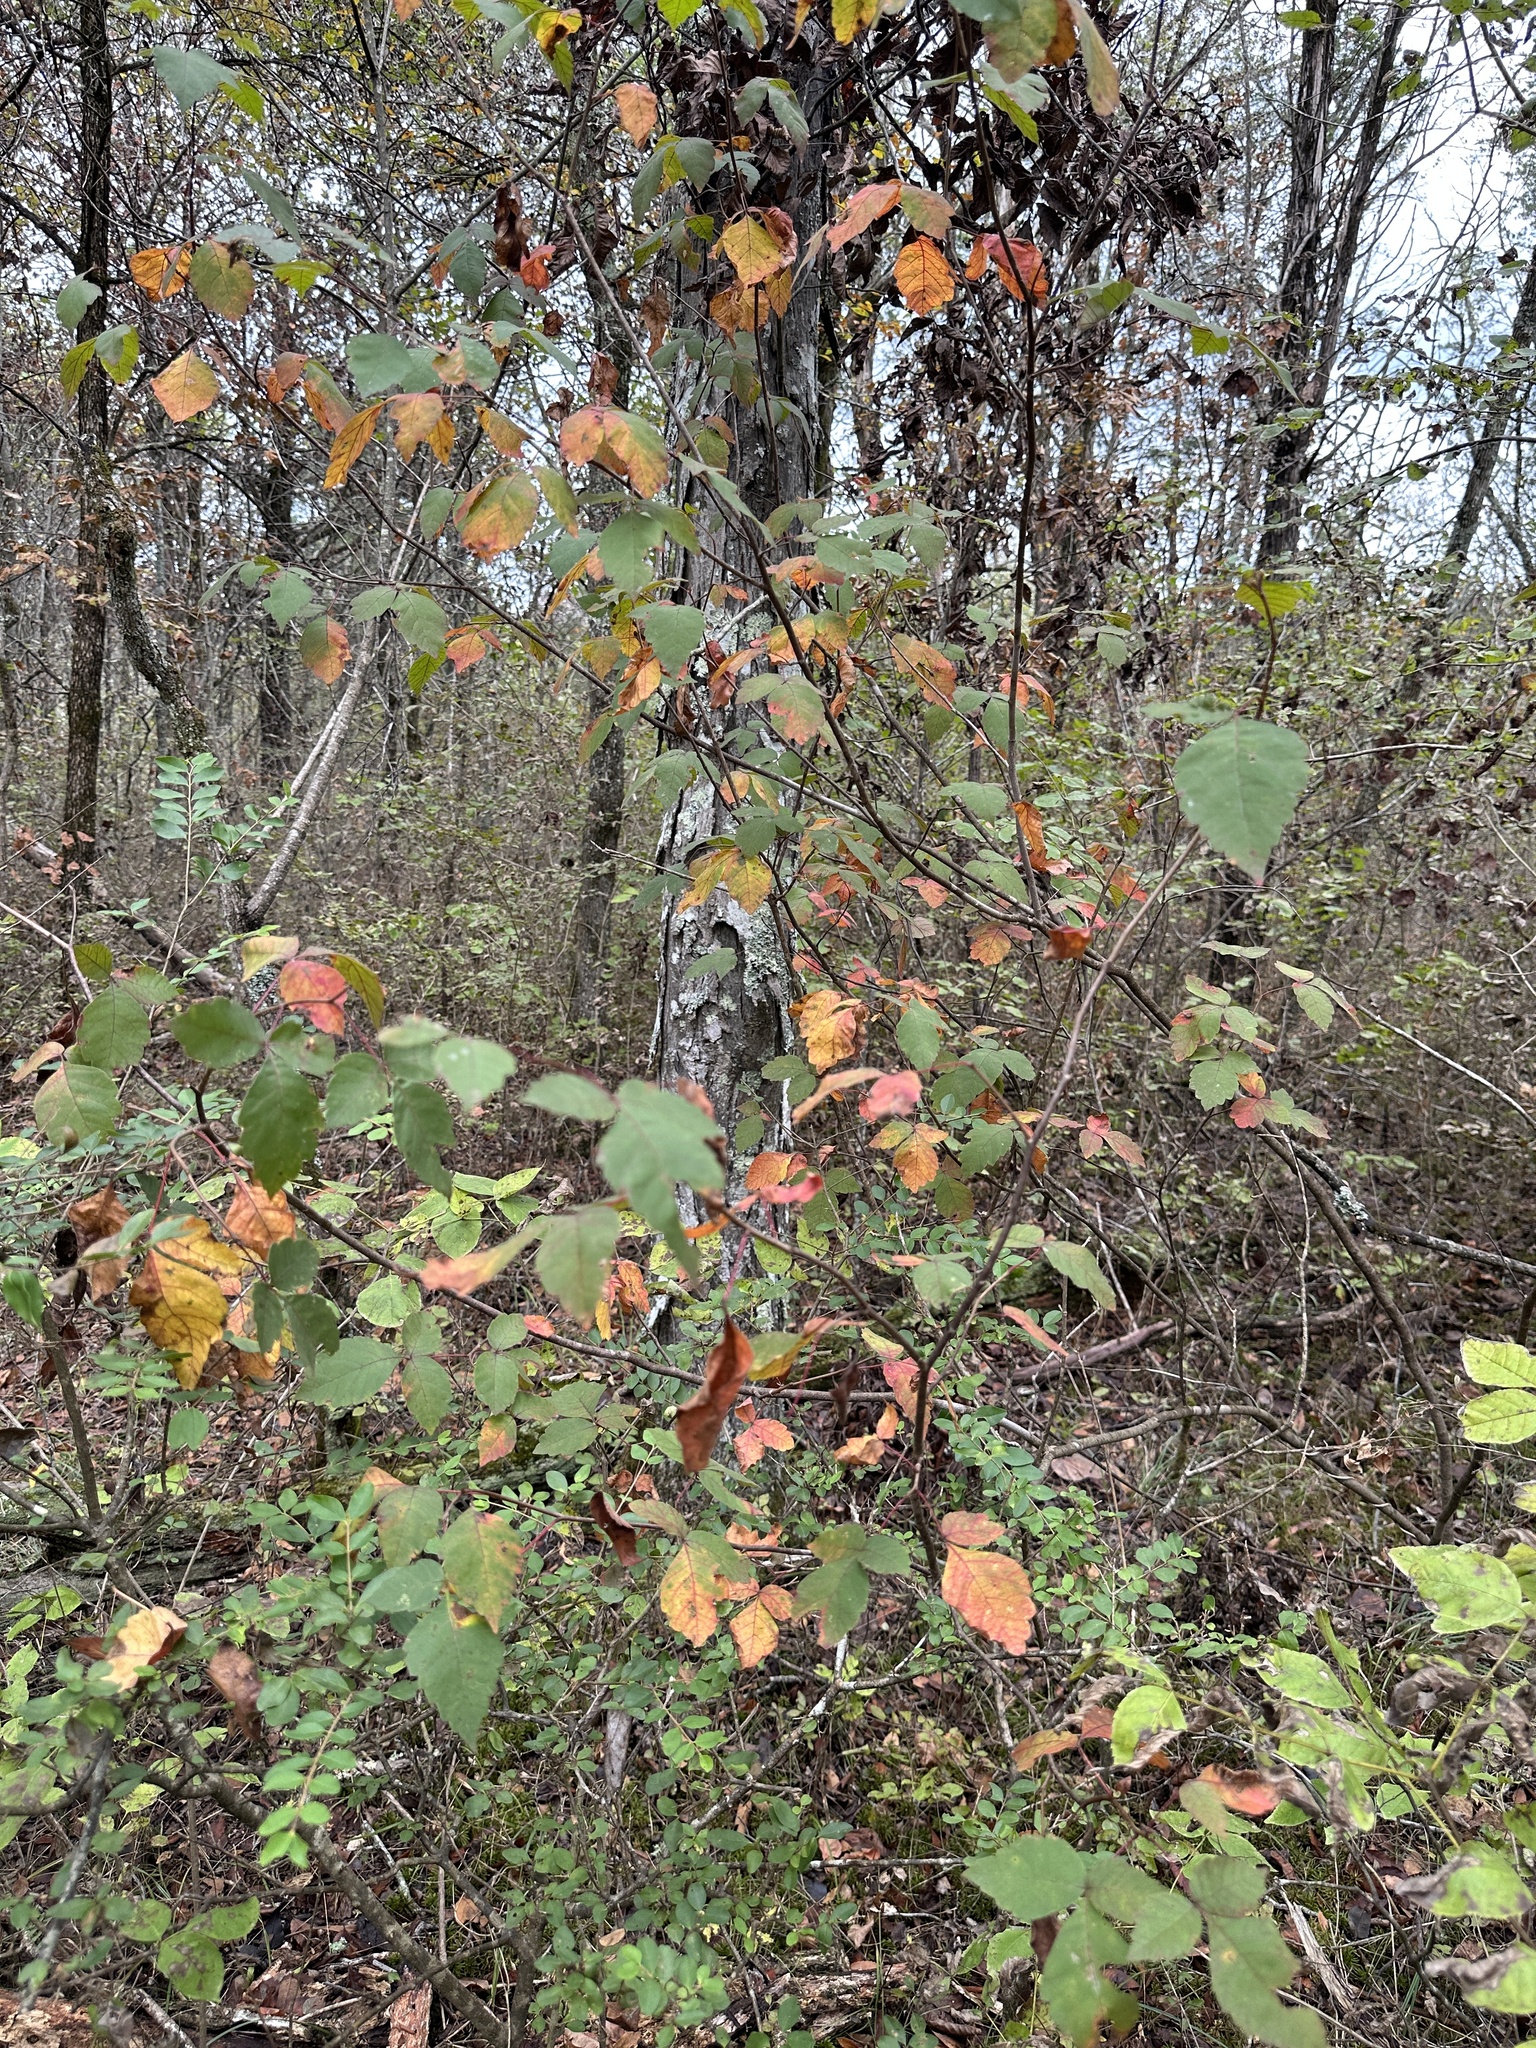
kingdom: Plantae
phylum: Tracheophyta
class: Magnoliopsida
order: Sapindales
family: Anacardiaceae
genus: Rhus
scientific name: Rhus aromatica
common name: Aromatic sumac
